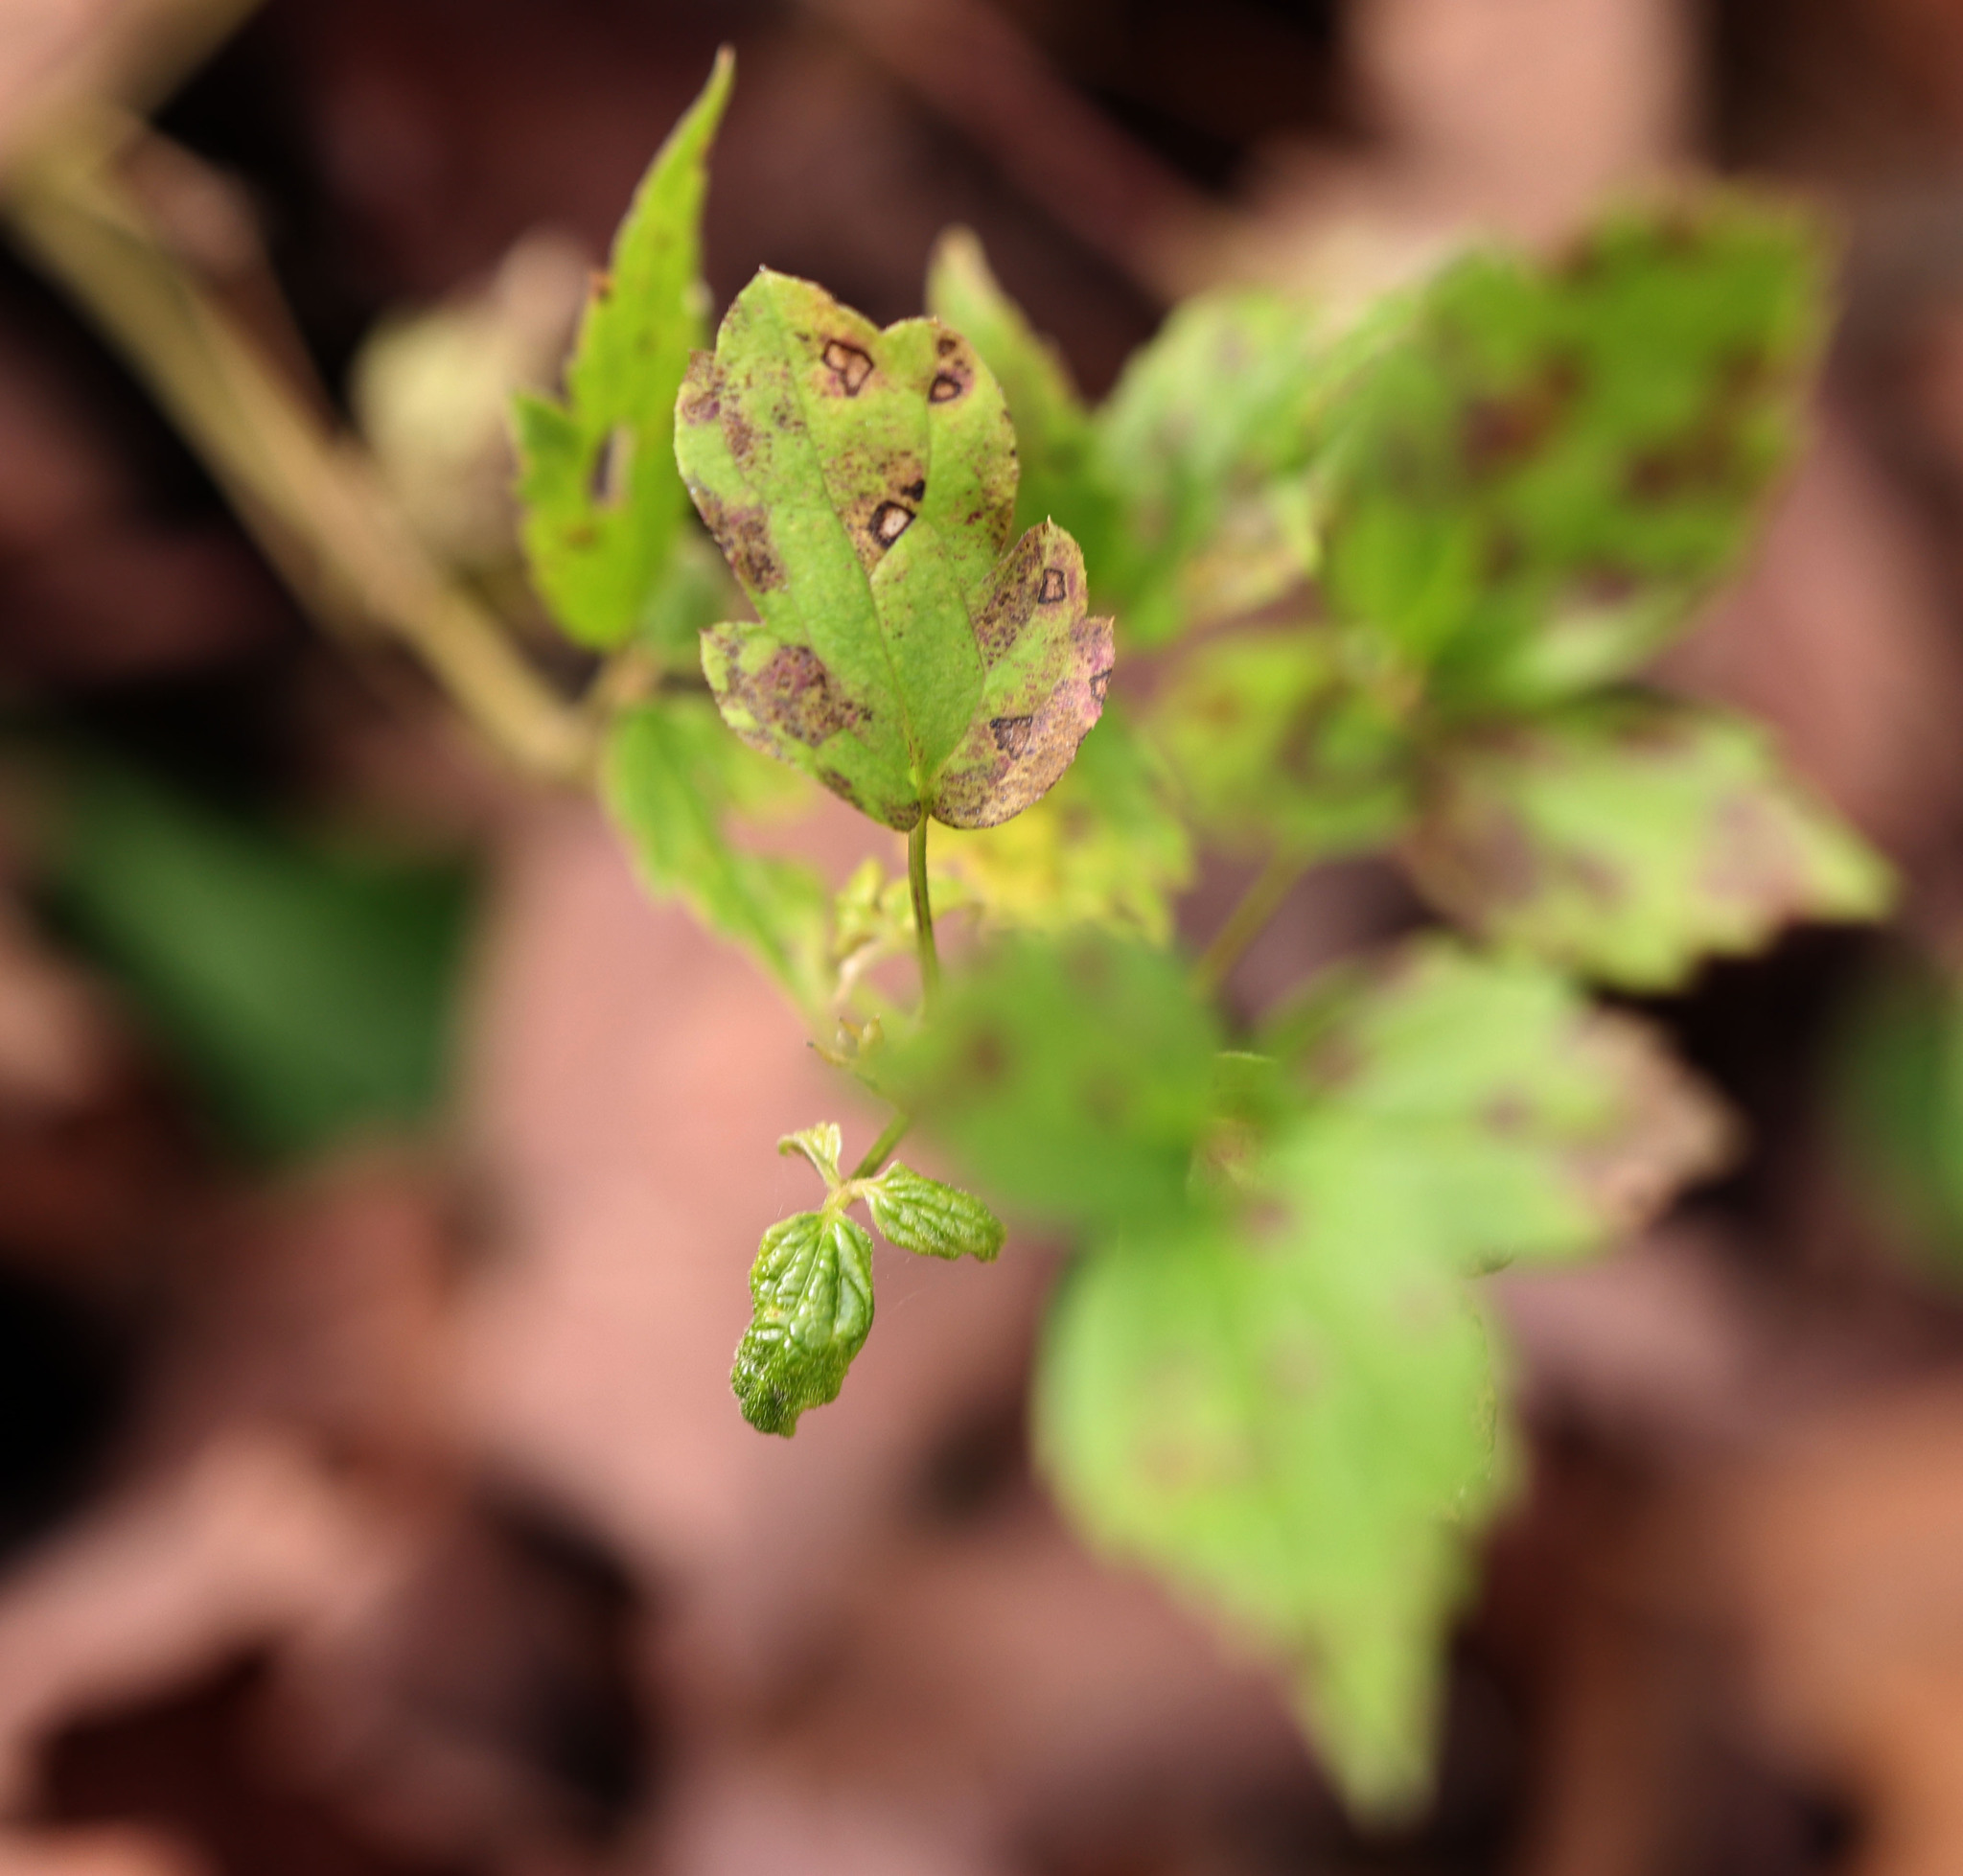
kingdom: Plantae
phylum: Tracheophyta
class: Magnoliopsida
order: Ranunculales
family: Ranunculaceae
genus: Clematis
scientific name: Clematis virginiana
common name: Virgin's-bower
